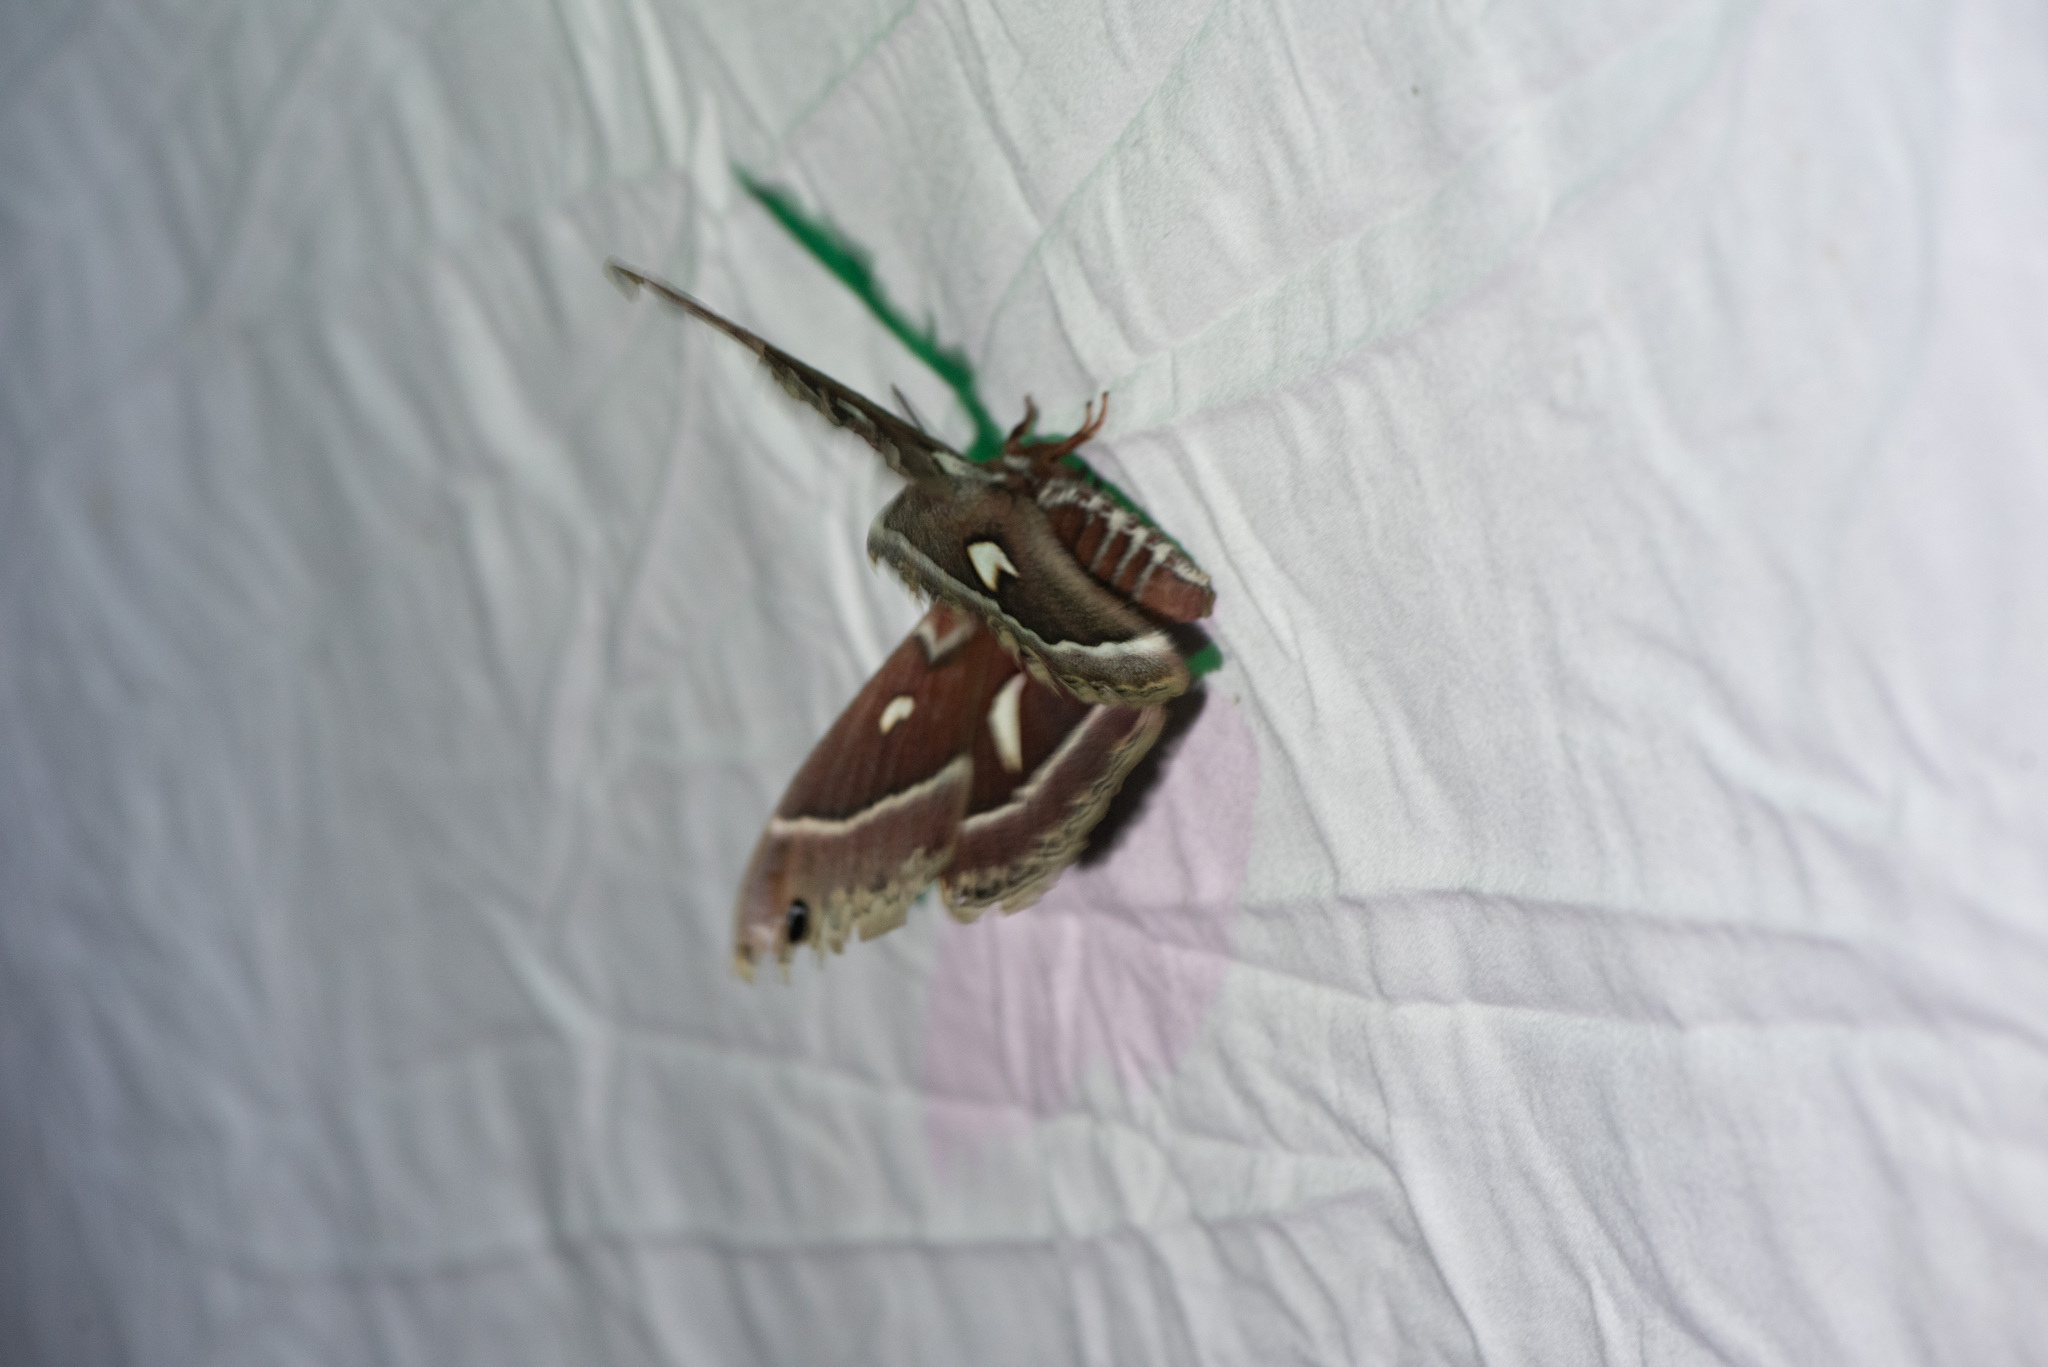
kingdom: Animalia
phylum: Arthropoda
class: Insecta
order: Lepidoptera
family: Saturniidae
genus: Hyalophora
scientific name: Hyalophora euryalus
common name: Ceanothus silkmoth
